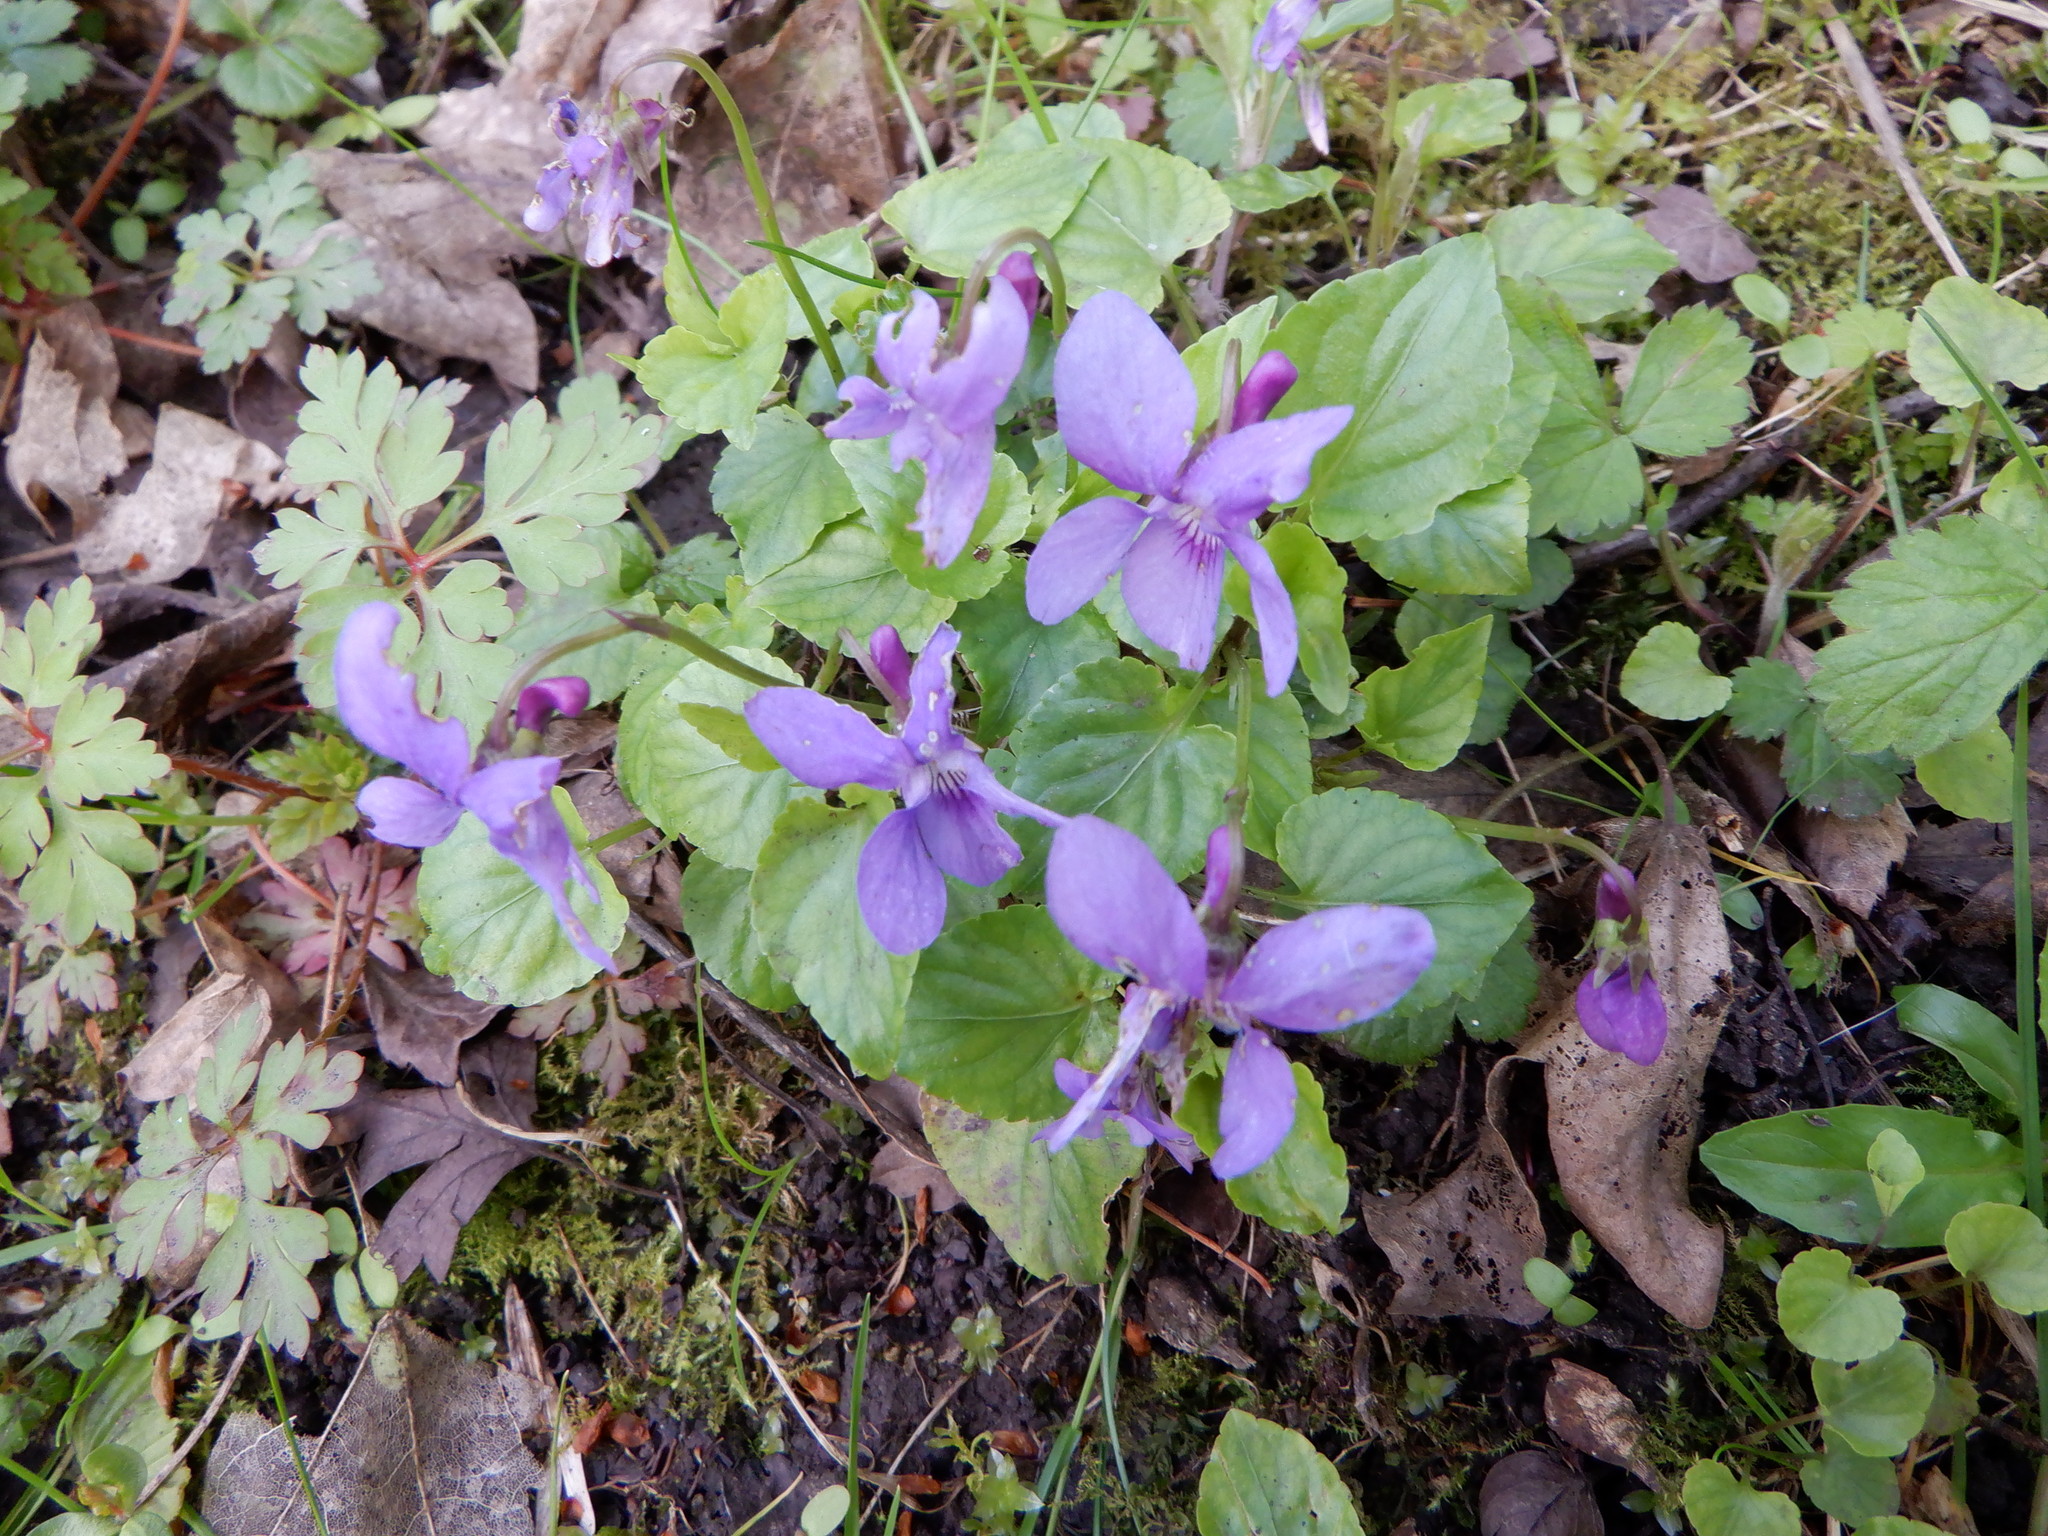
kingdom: Plantae
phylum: Tracheophyta
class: Magnoliopsida
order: Malpighiales
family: Violaceae
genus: Viola
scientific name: Viola reichenbachiana
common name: Early dog-violet
